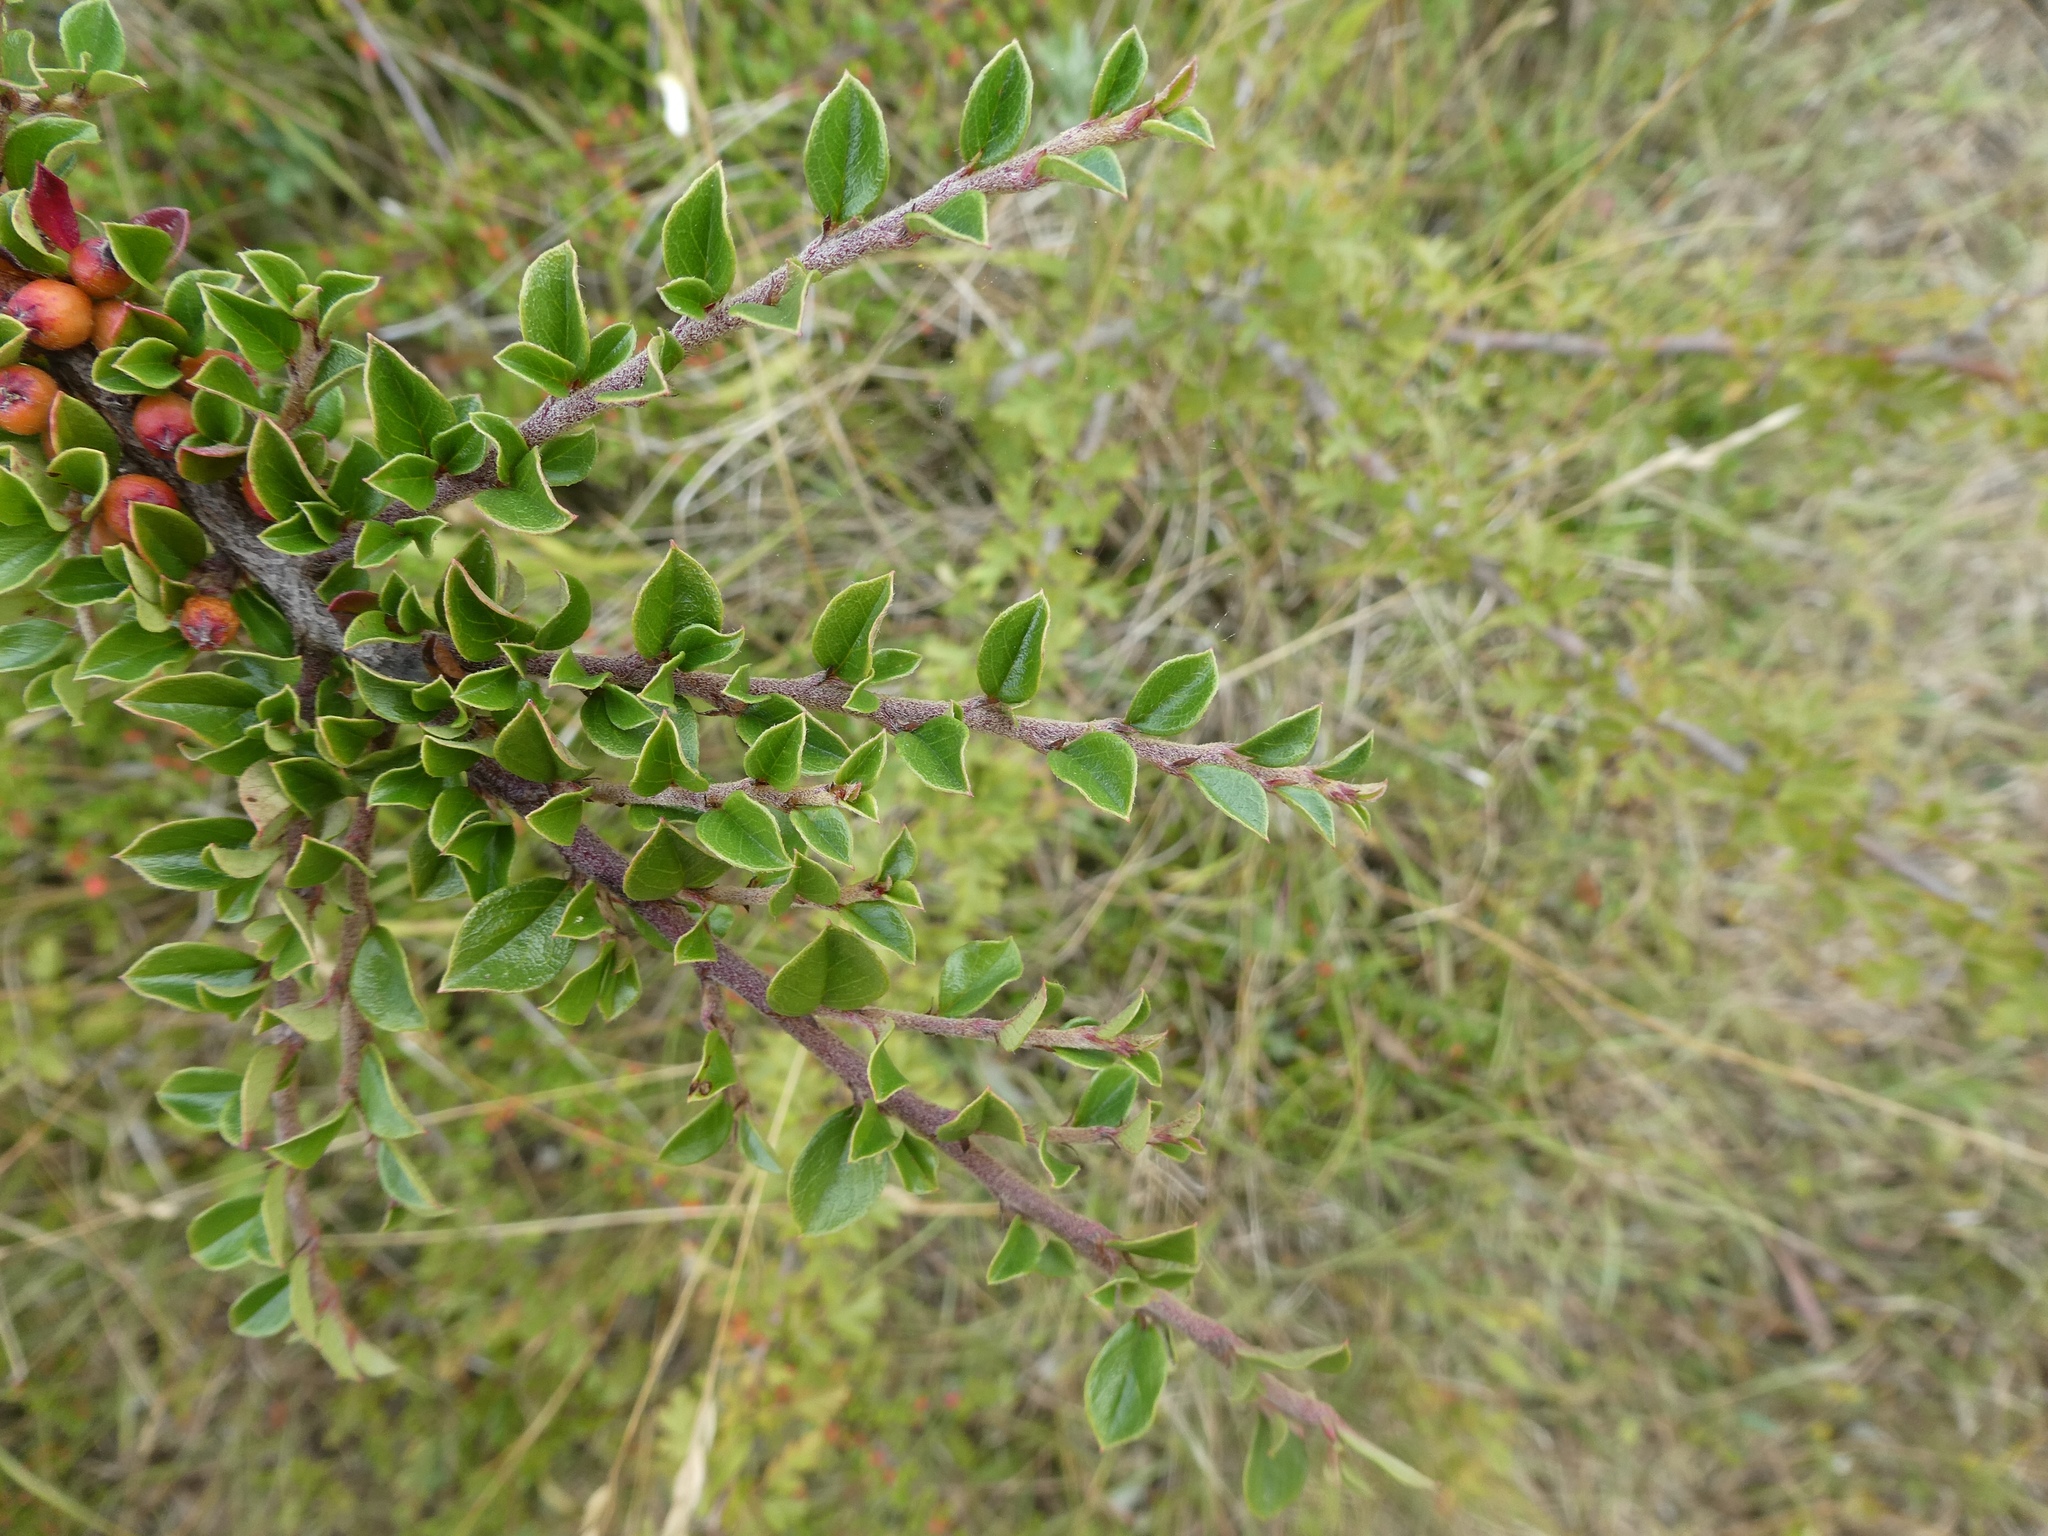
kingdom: Plantae
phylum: Tracheophyta
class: Magnoliopsida
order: Rosales
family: Rosaceae
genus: Cotoneaster
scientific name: Cotoneaster horizontalis
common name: Wall cotoneaster
